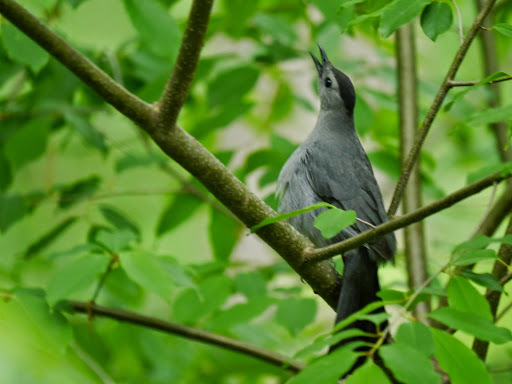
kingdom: Animalia
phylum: Chordata
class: Aves
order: Passeriformes
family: Mimidae
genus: Dumetella
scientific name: Dumetella carolinensis
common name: Gray catbird
